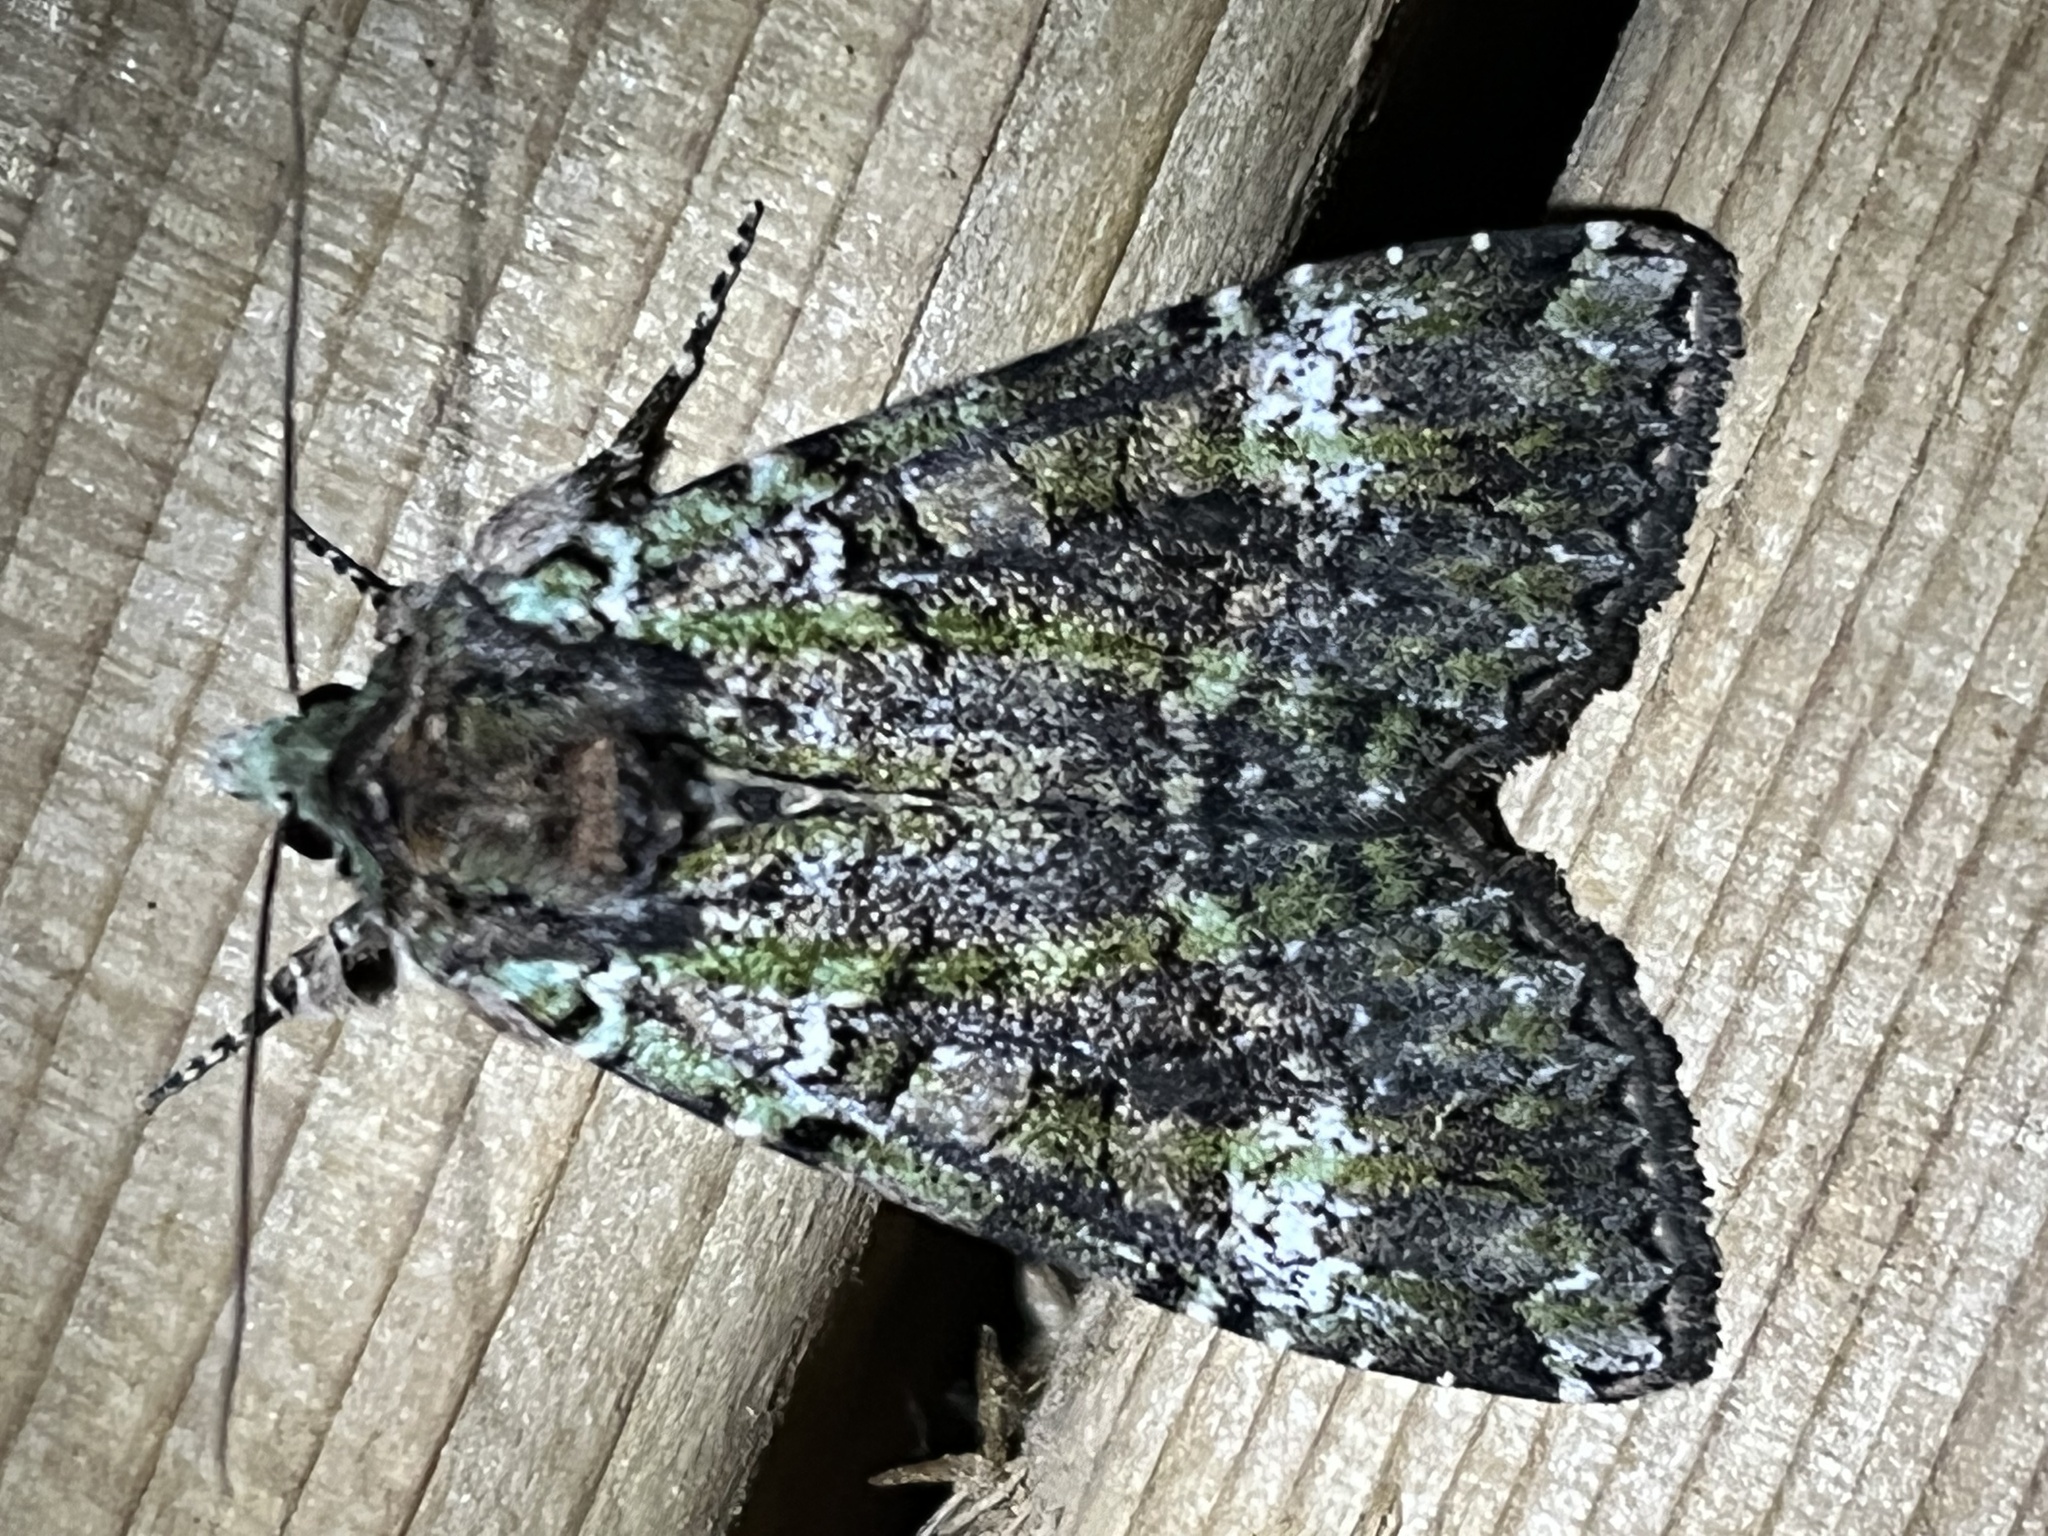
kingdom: Animalia
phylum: Arthropoda
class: Insecta
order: Lepidoptera
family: Noctuidae
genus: Anaplectoides
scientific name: Anaplectoides prasina
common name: Green arches
